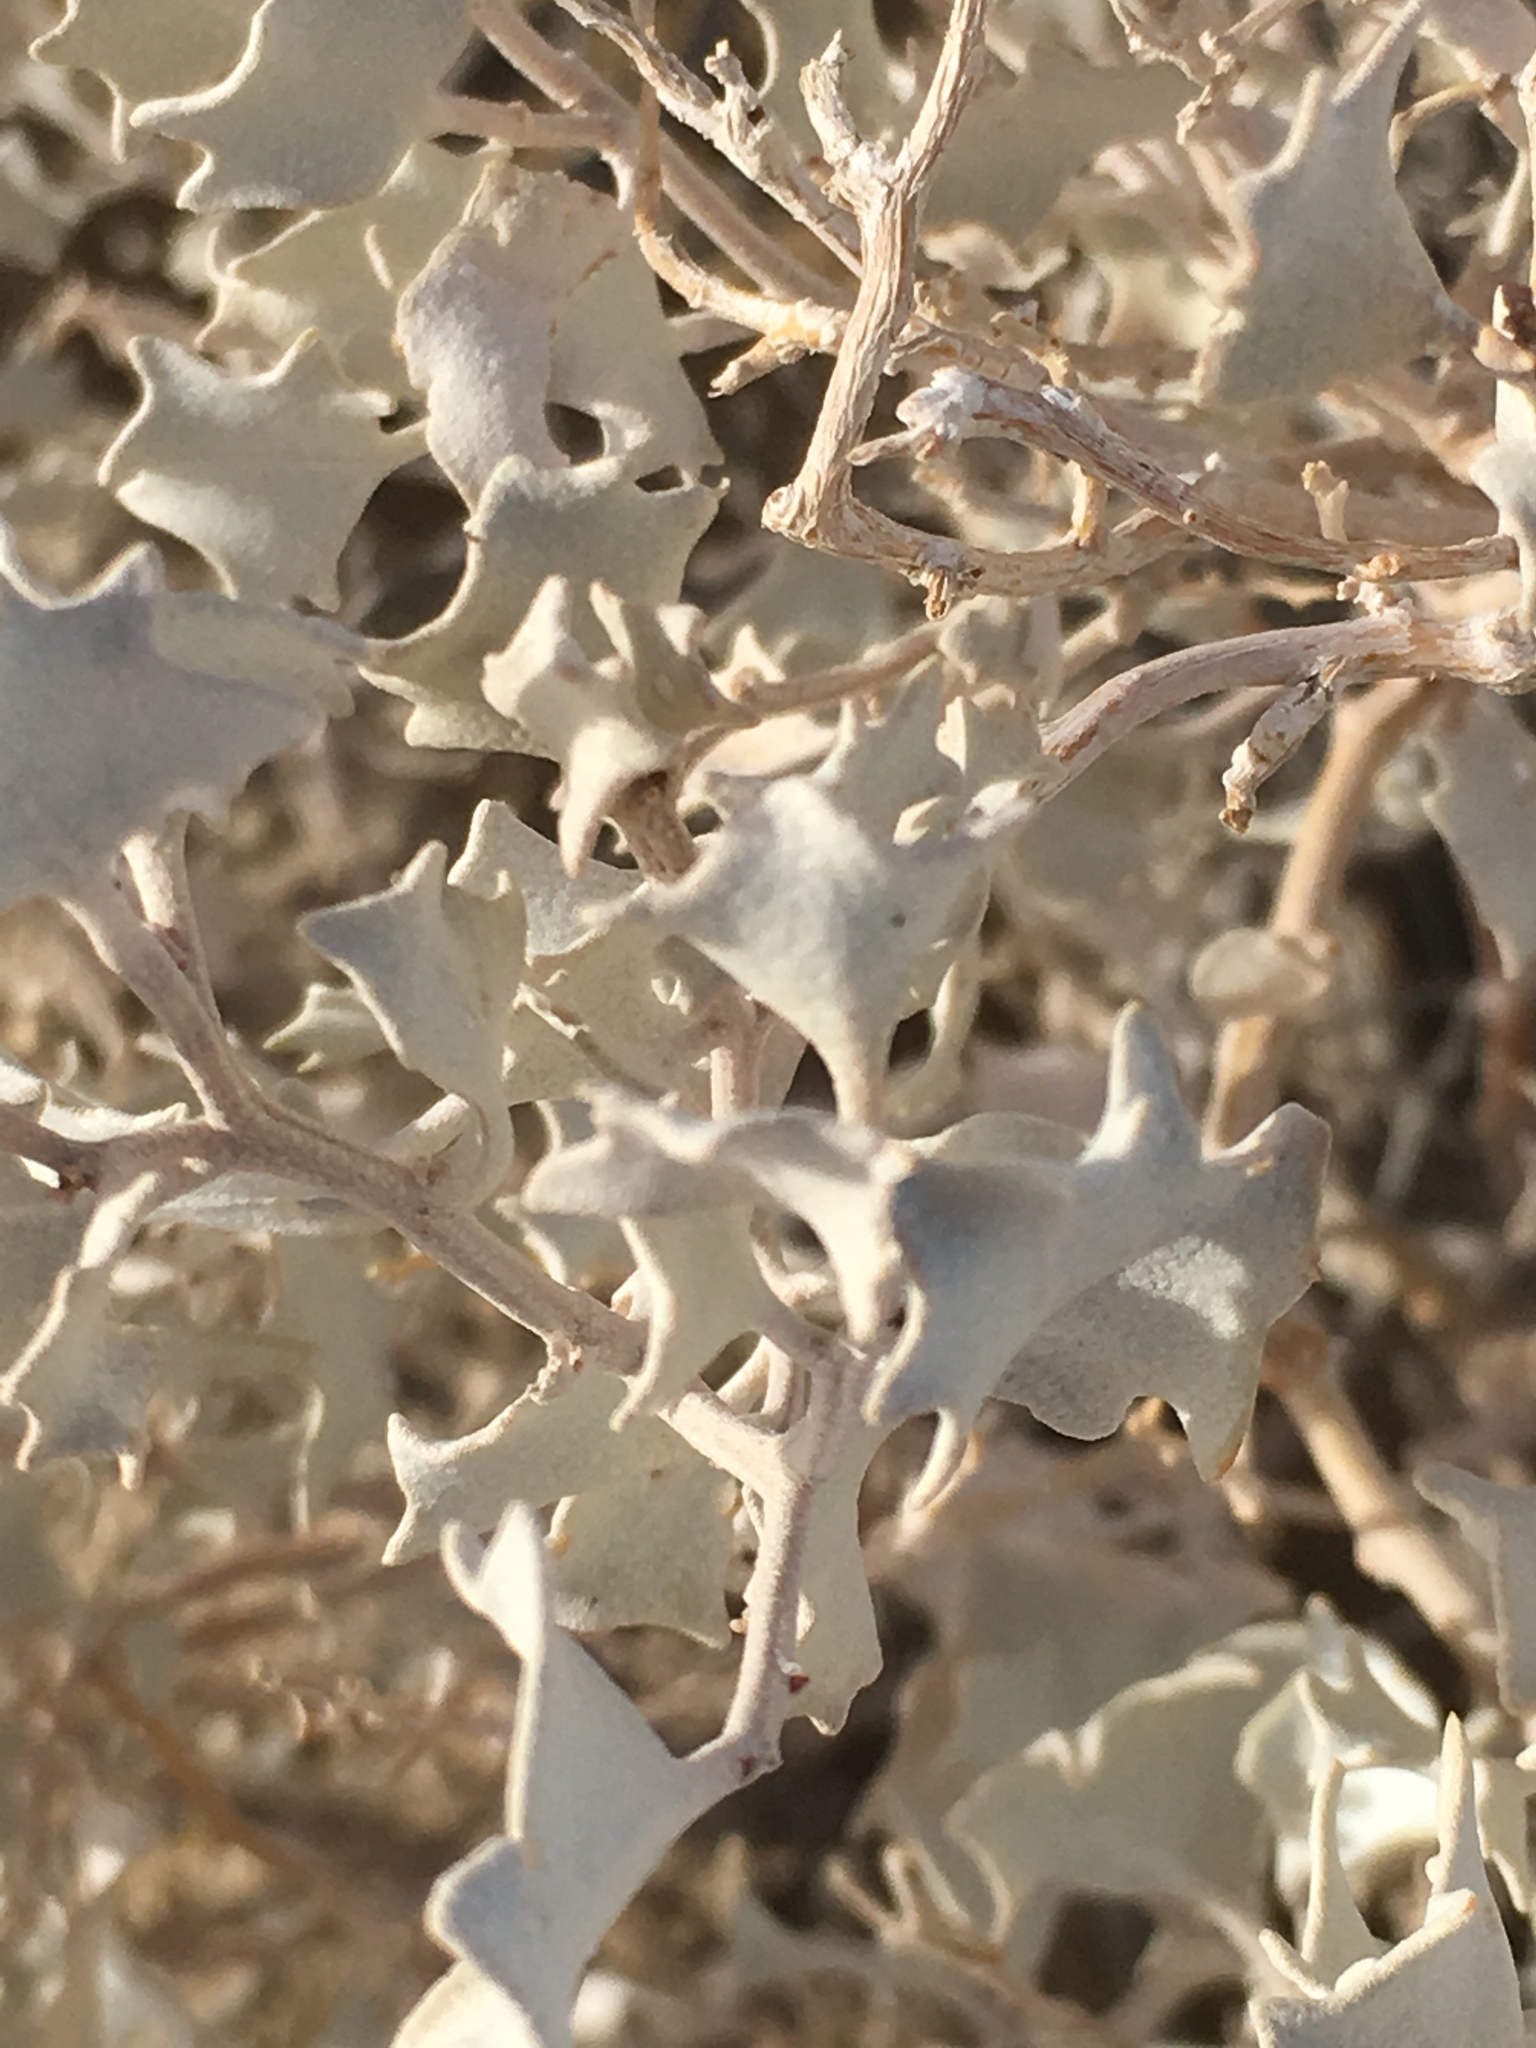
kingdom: Plantae
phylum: Tracheophyta
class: Magnoliopsida
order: Caryophyllales
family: Amaranthaceae
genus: Atriplex
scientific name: Atriplex hymenelytra
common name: Desert-holly
